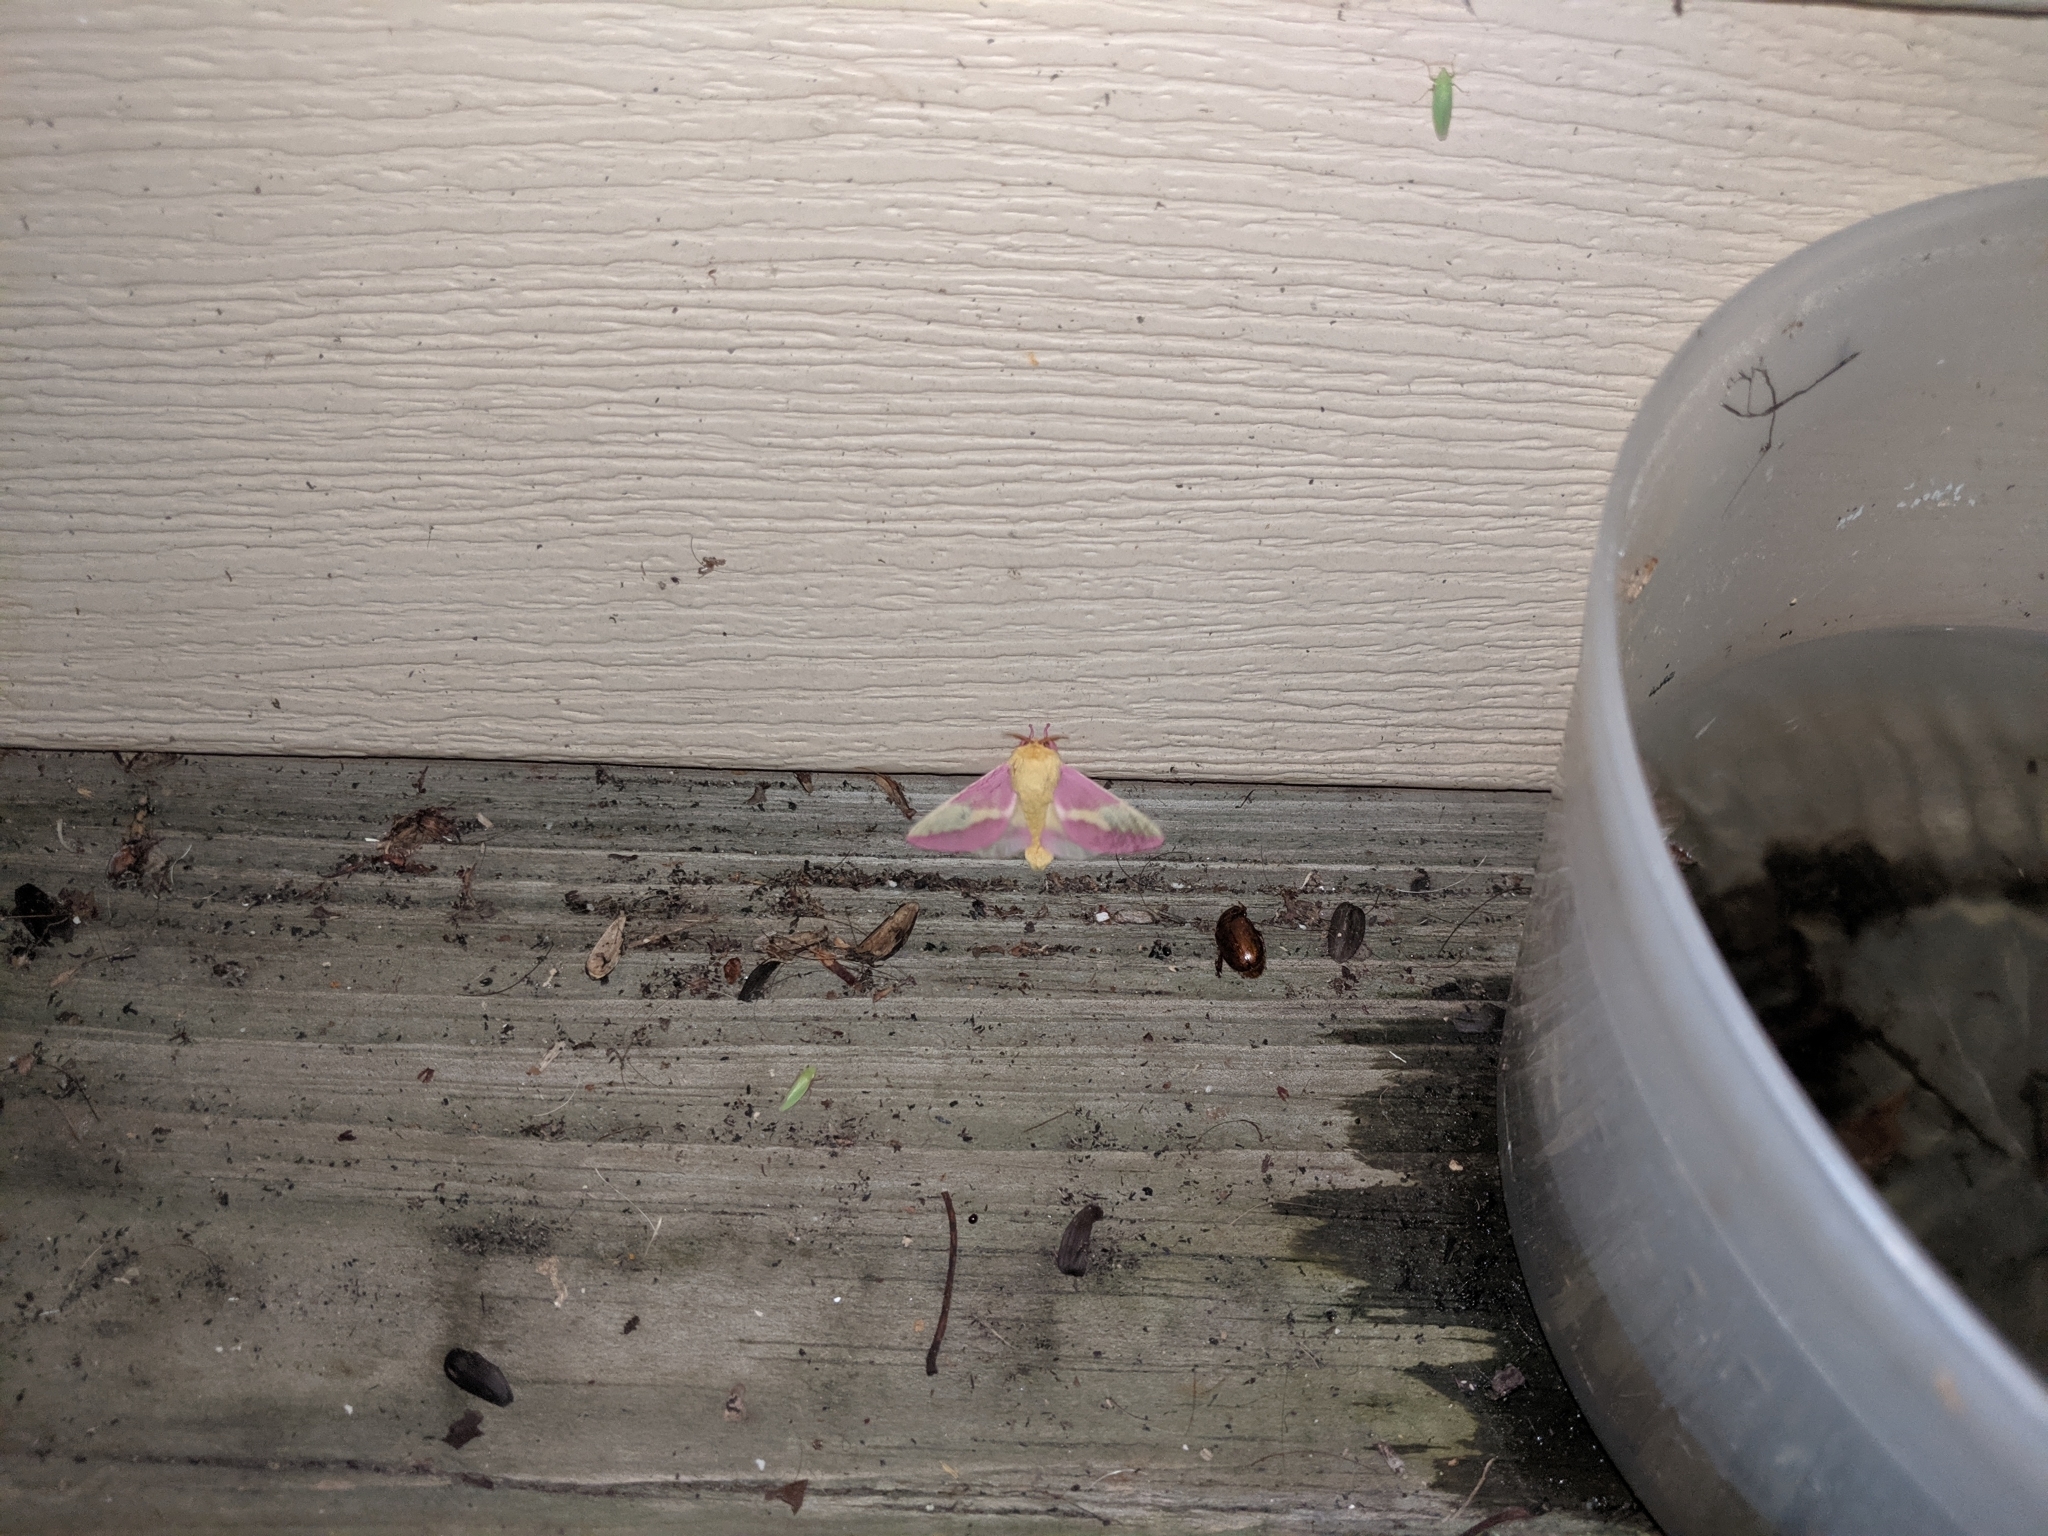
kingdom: Animalia
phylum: Arthropoda
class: Insecta
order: Lepidoptera
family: Saturniidae
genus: Dryocampa
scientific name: Dryocampa rubicunda
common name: Rosy maple moth
